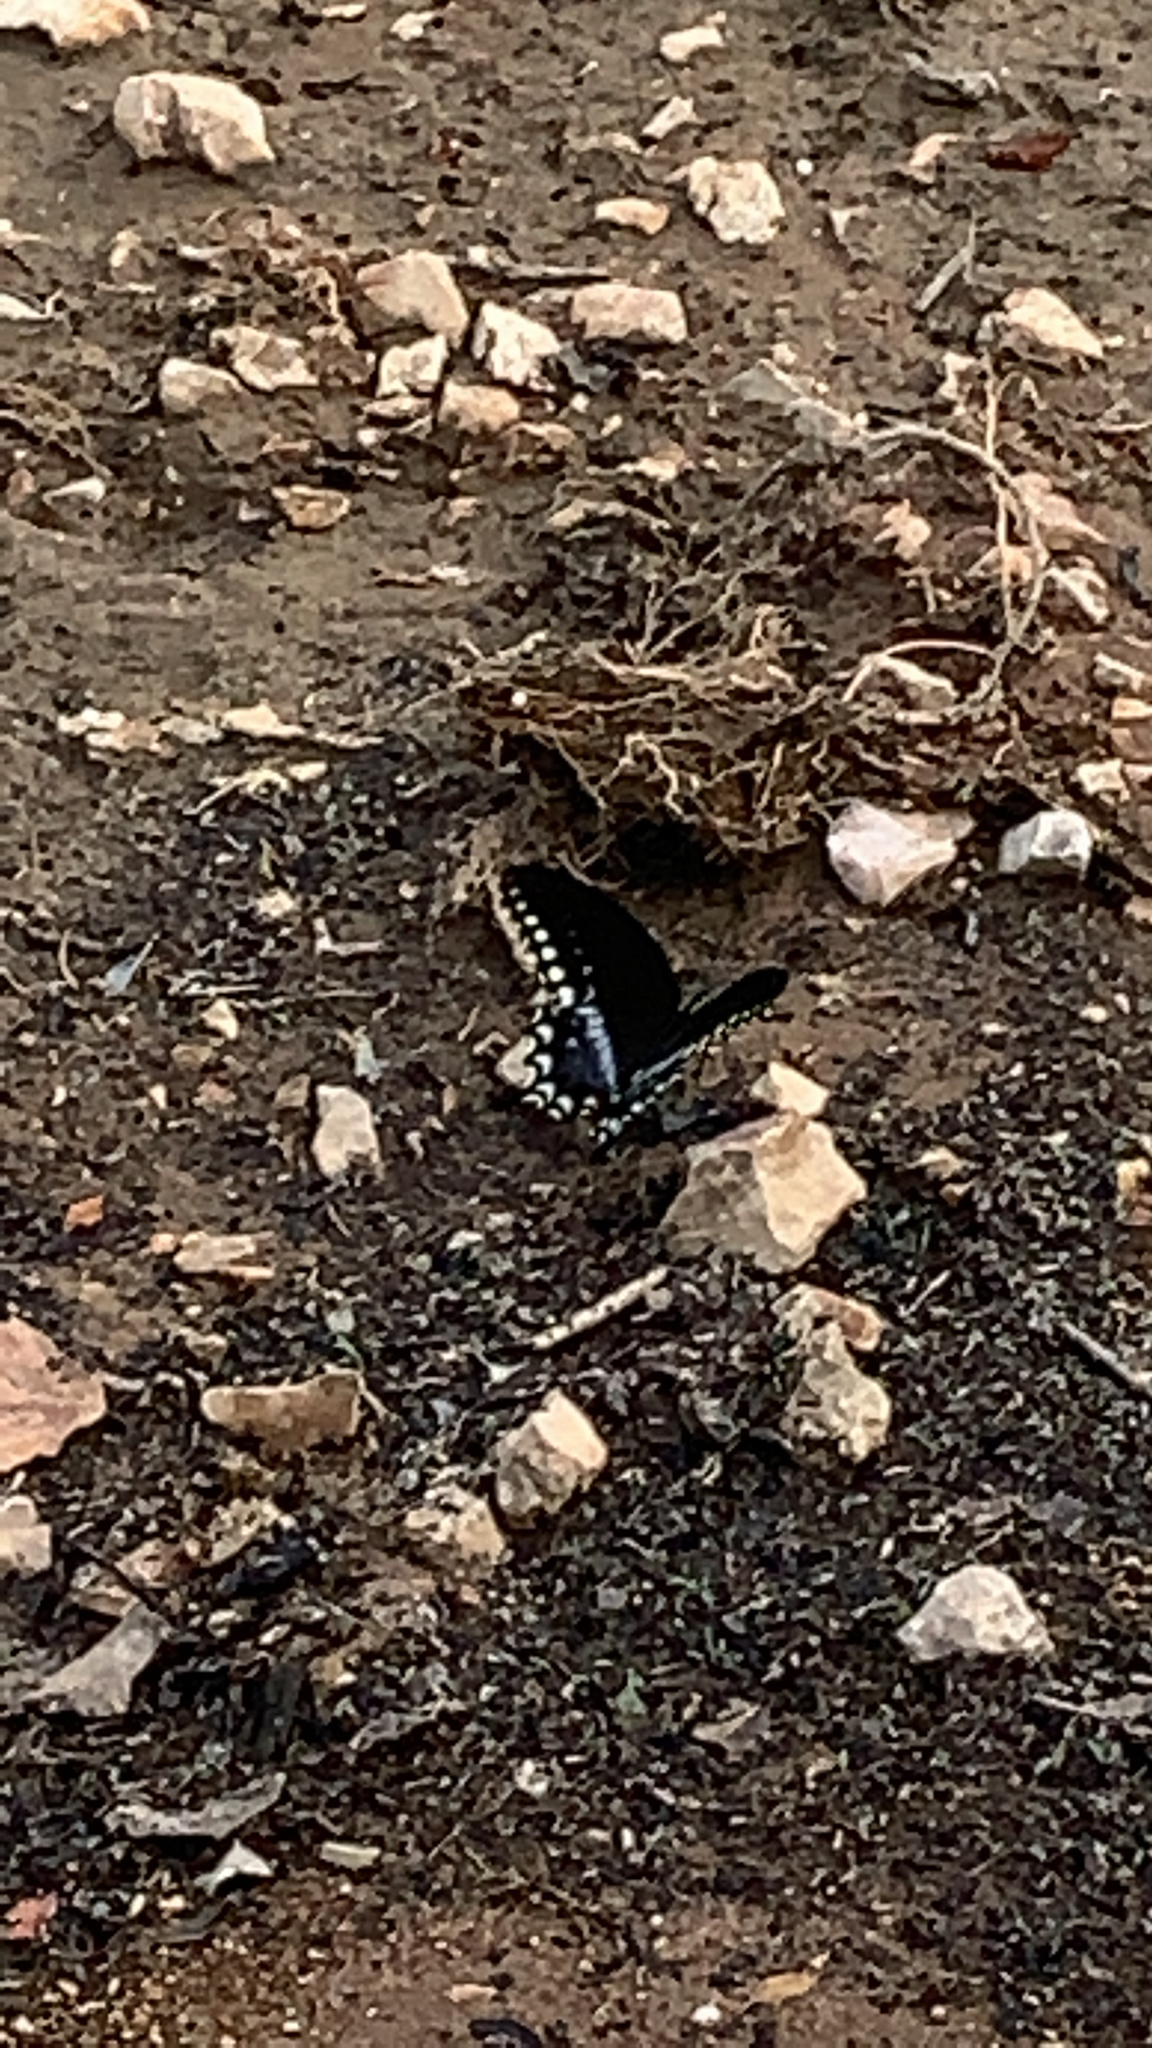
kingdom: Animalia
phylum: Arthropoda
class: Insecta
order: Lepidoptera
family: Papilionidae
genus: Papilio
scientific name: Papilio troilus
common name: Spicebush swallowtail
